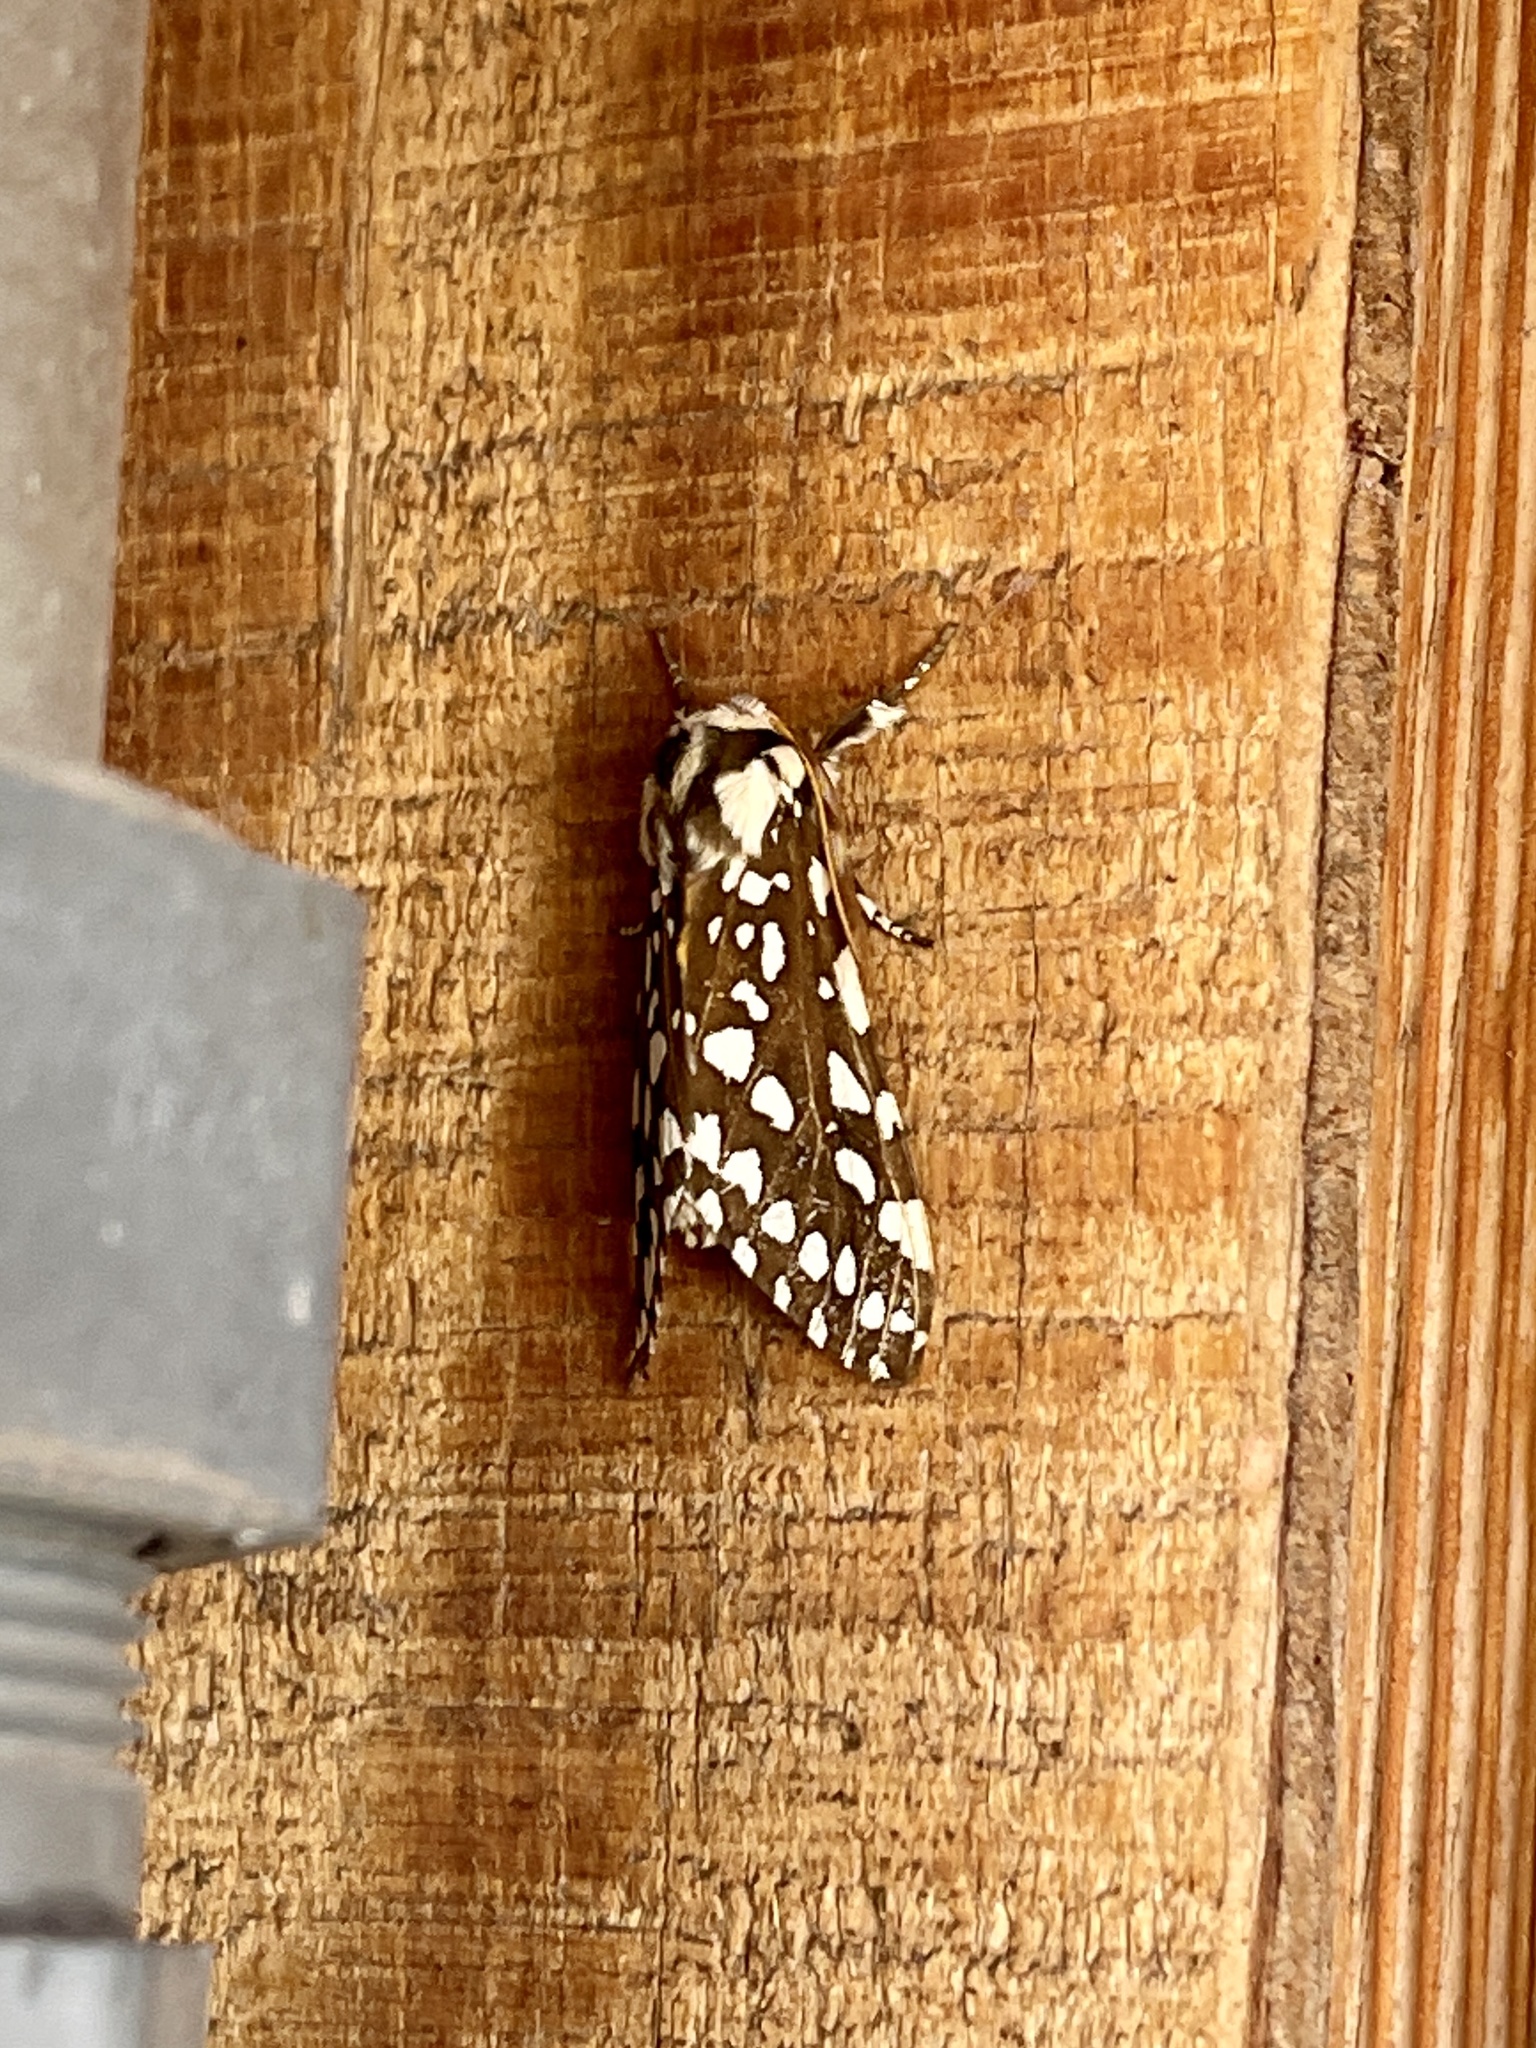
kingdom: Animalia
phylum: Arthropoda
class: Insecta
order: Lepidoptera
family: Erebidae
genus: Lophocampa
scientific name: Lophocampa ingens
